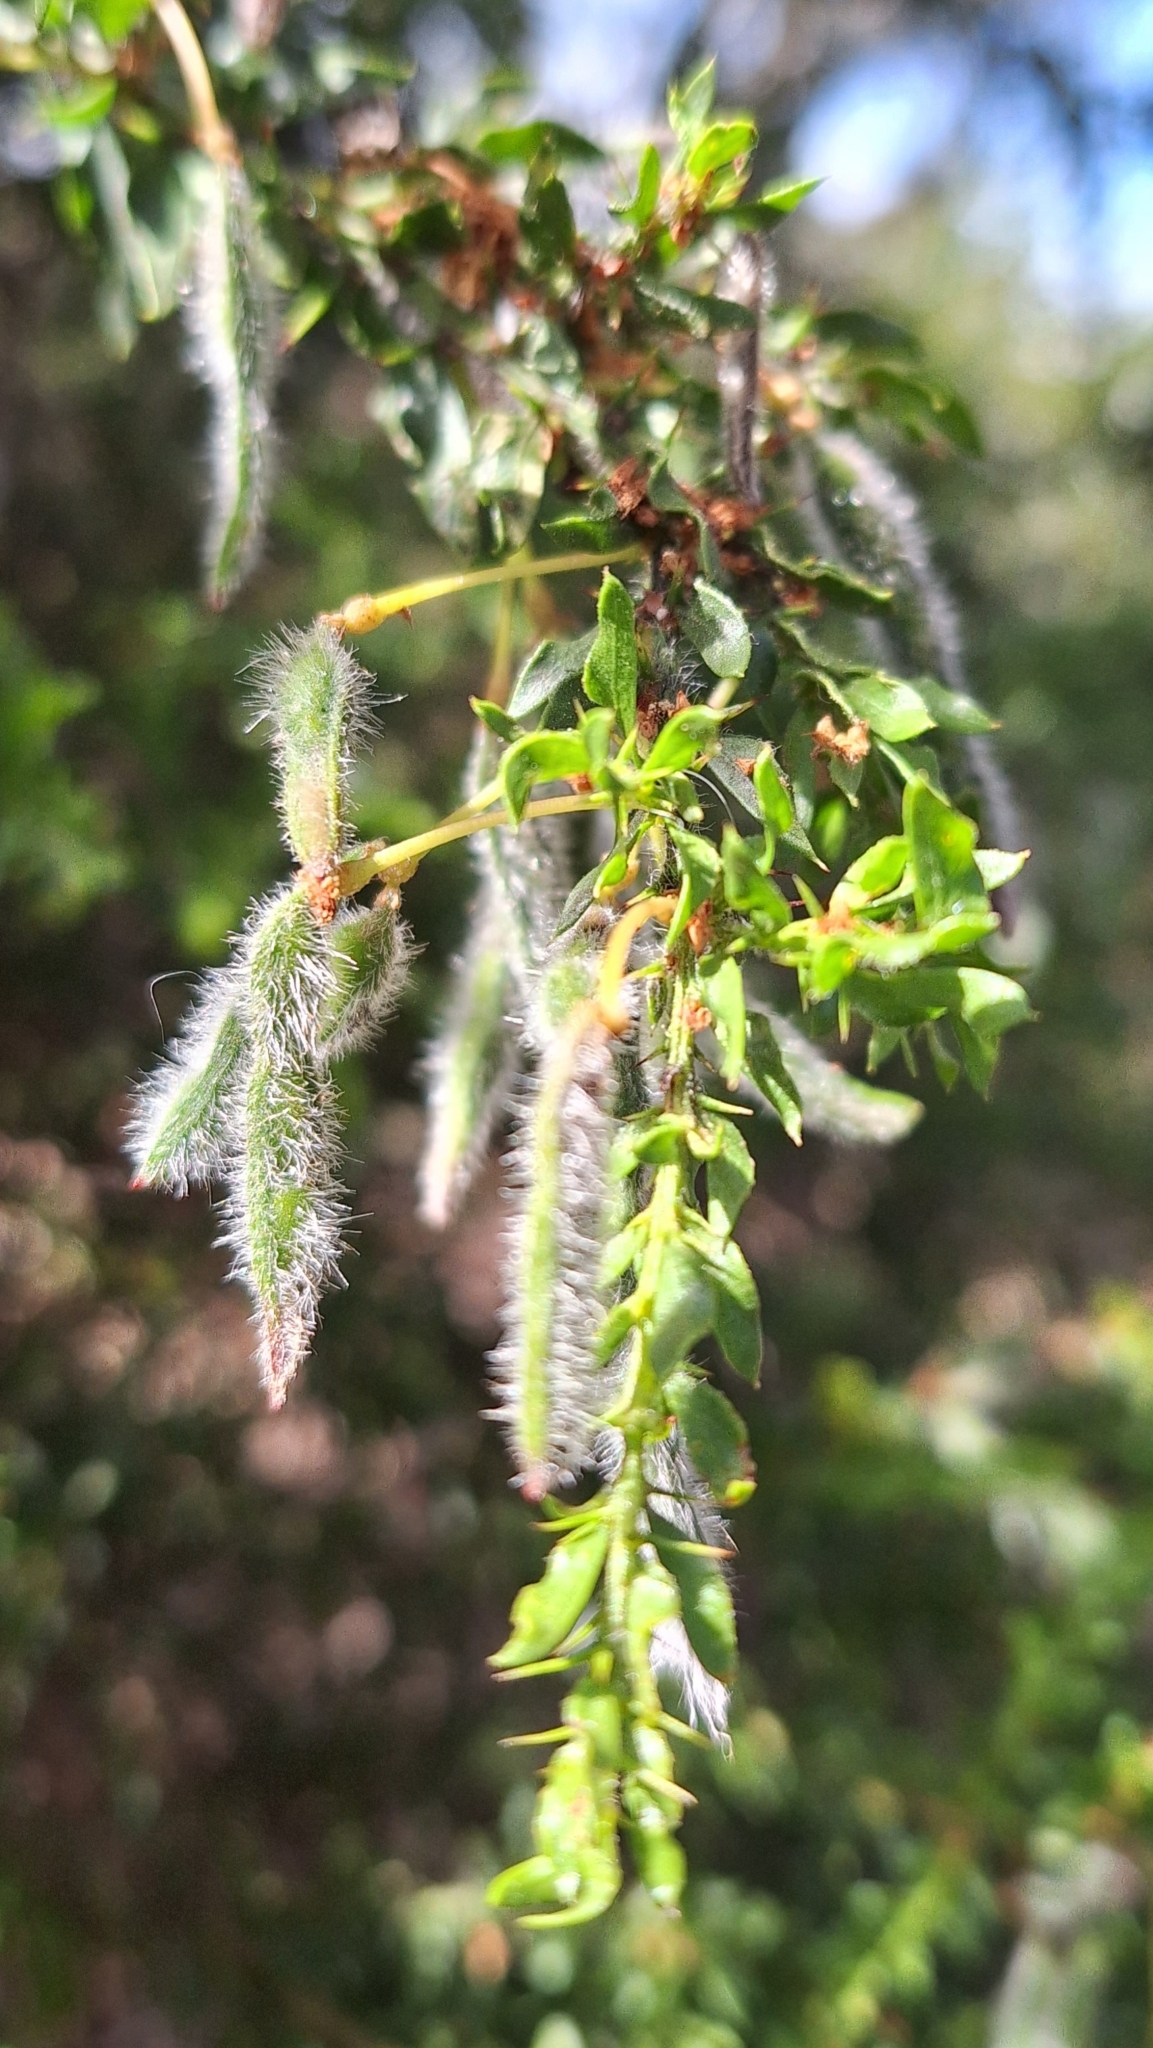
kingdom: Plantae
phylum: Tracheophyta
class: Magnoliopsida
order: Fabales
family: Fabaceae
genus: Acacia
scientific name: Acacia paradoxa
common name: Paradox acacia
